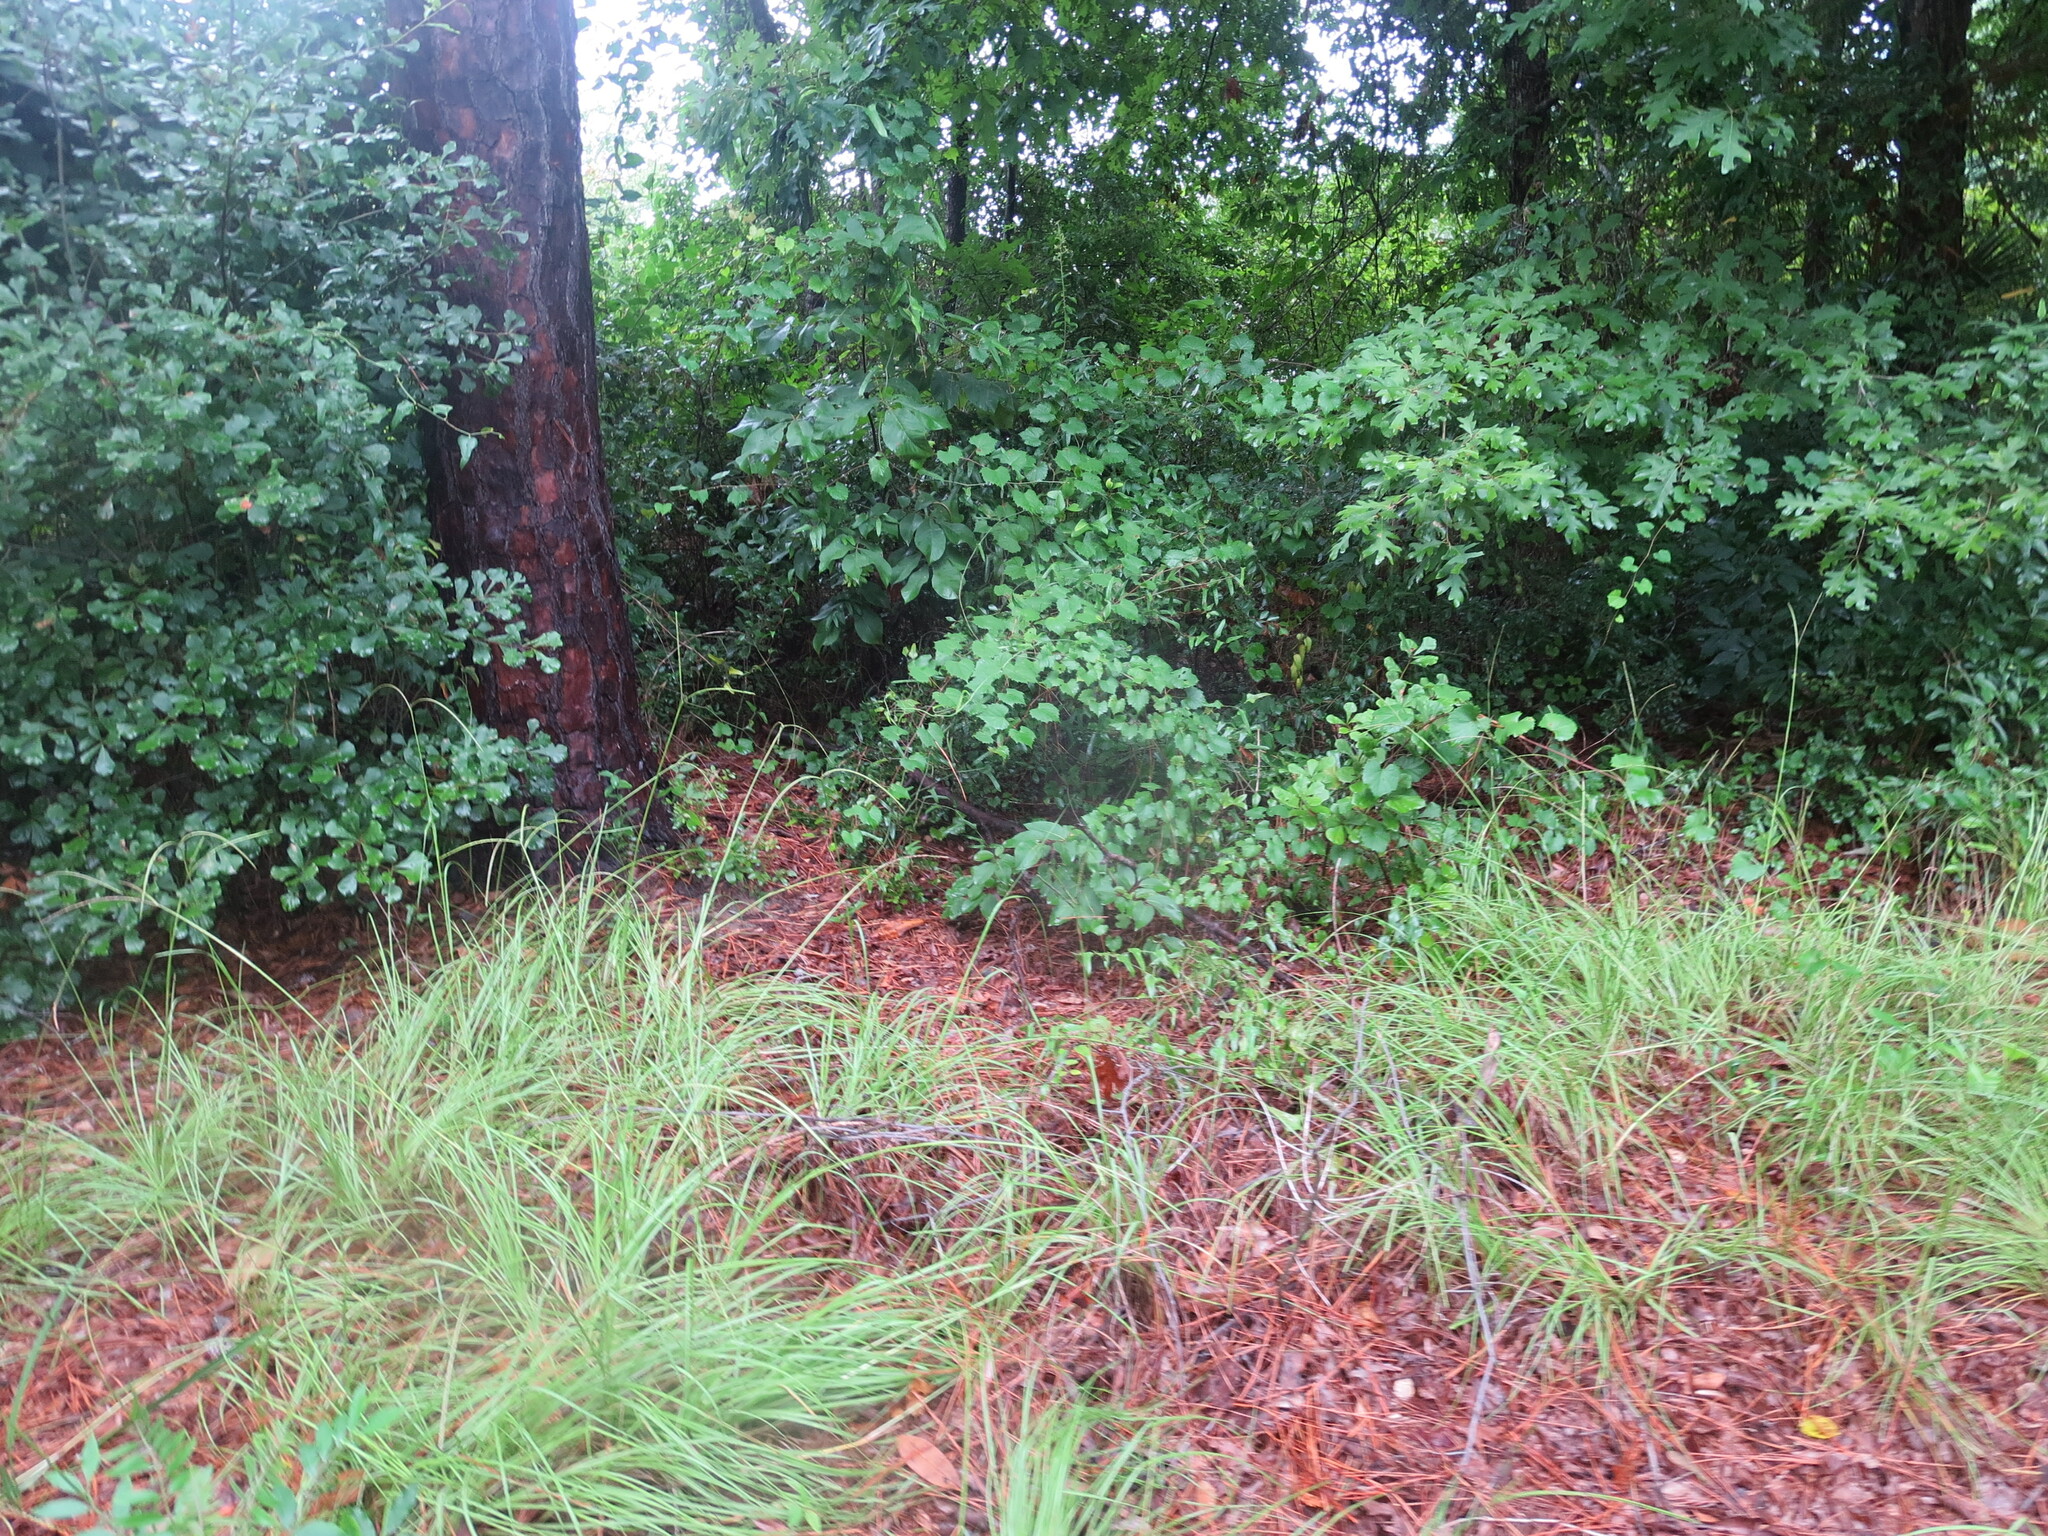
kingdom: Plantae
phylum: Tracheophyta
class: Magnoliopsida
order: Ericales
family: Ebenaceae
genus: Diospyros
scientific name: Diospyros virginiana
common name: Persimmon
